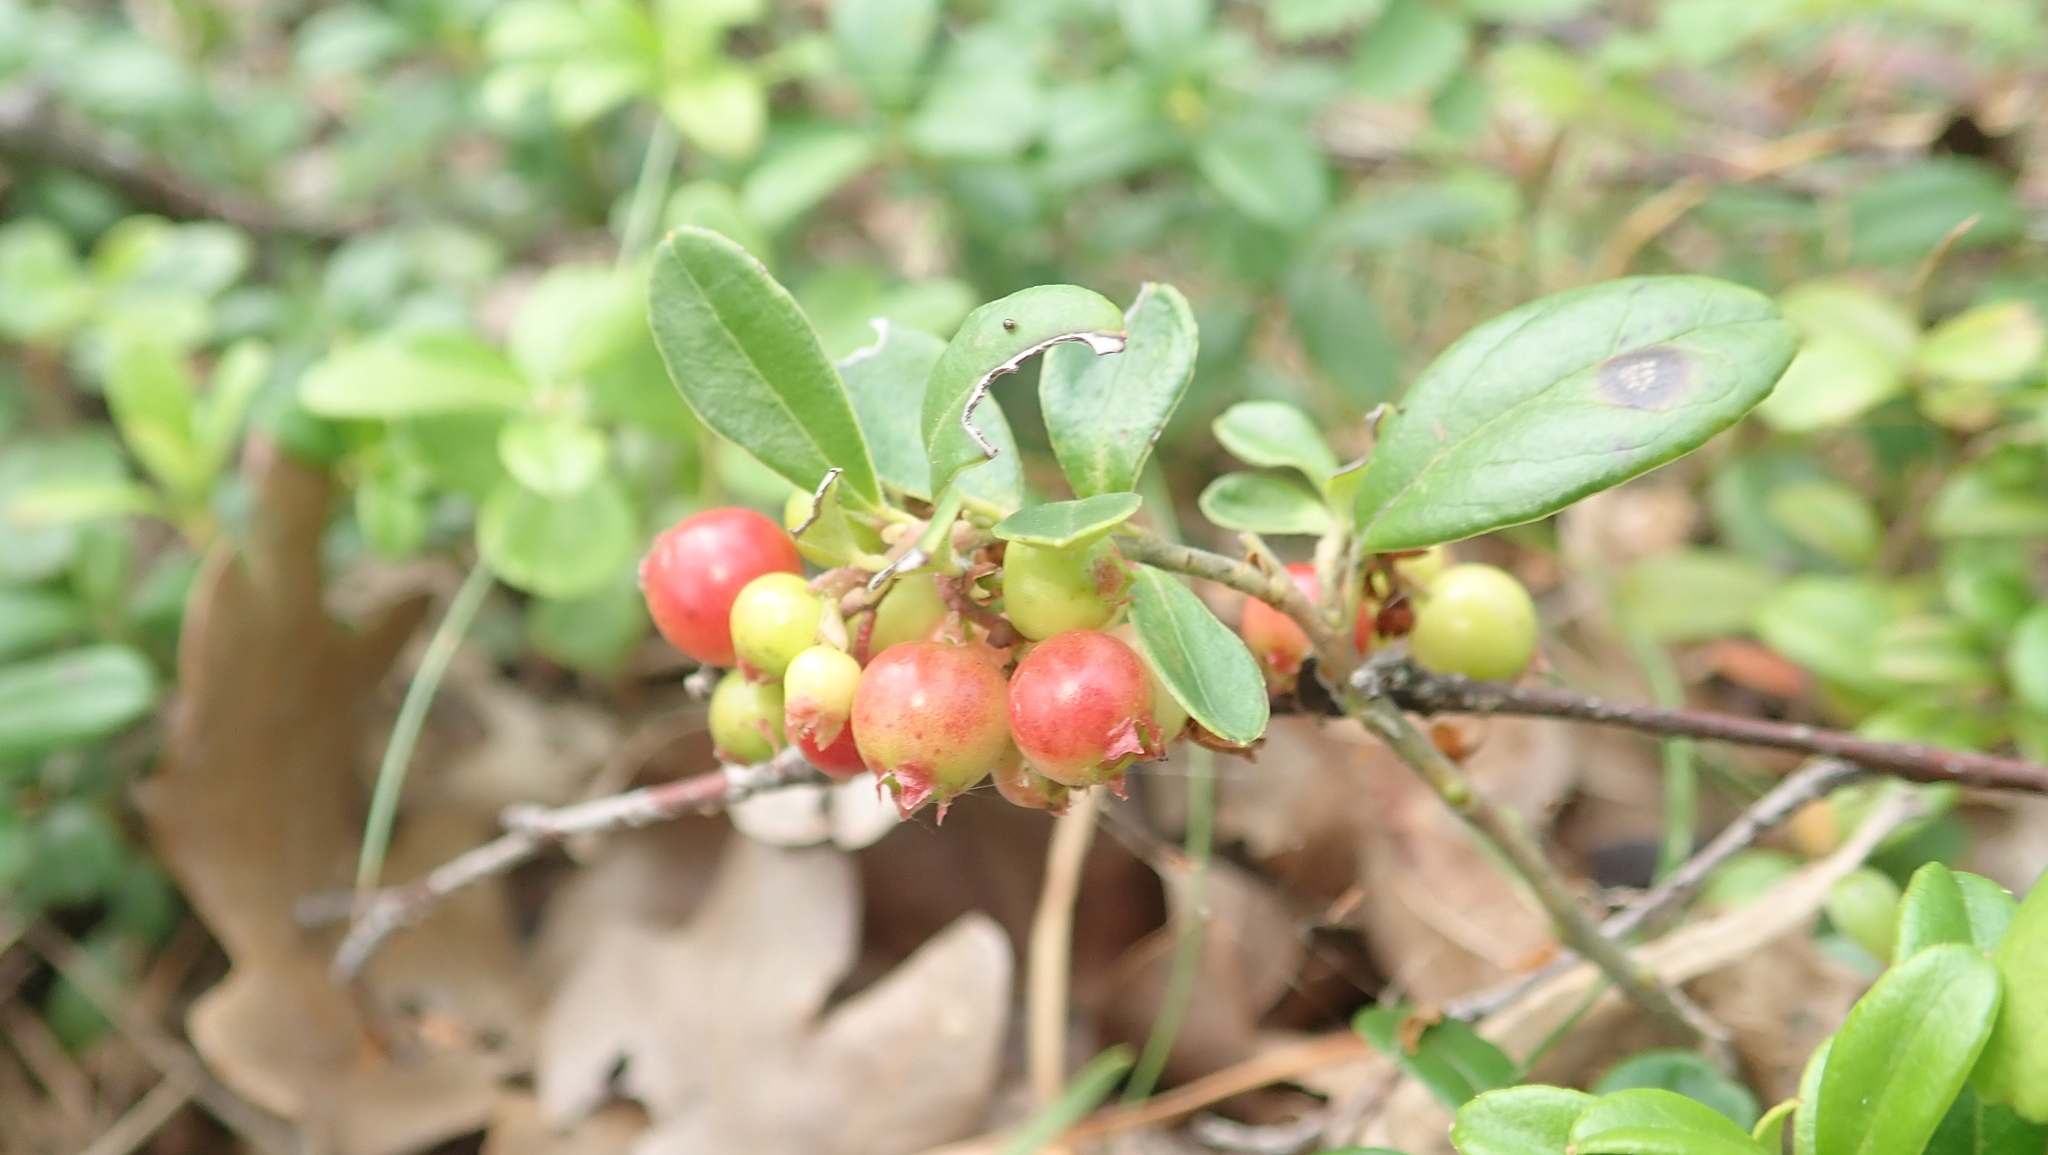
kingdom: Plantae
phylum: Tracheophyta
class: Magnoliopsida
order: Ericales
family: Ericaceae
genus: Vaccinium
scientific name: Vaccinium vitis-idaea
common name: Cowberry
